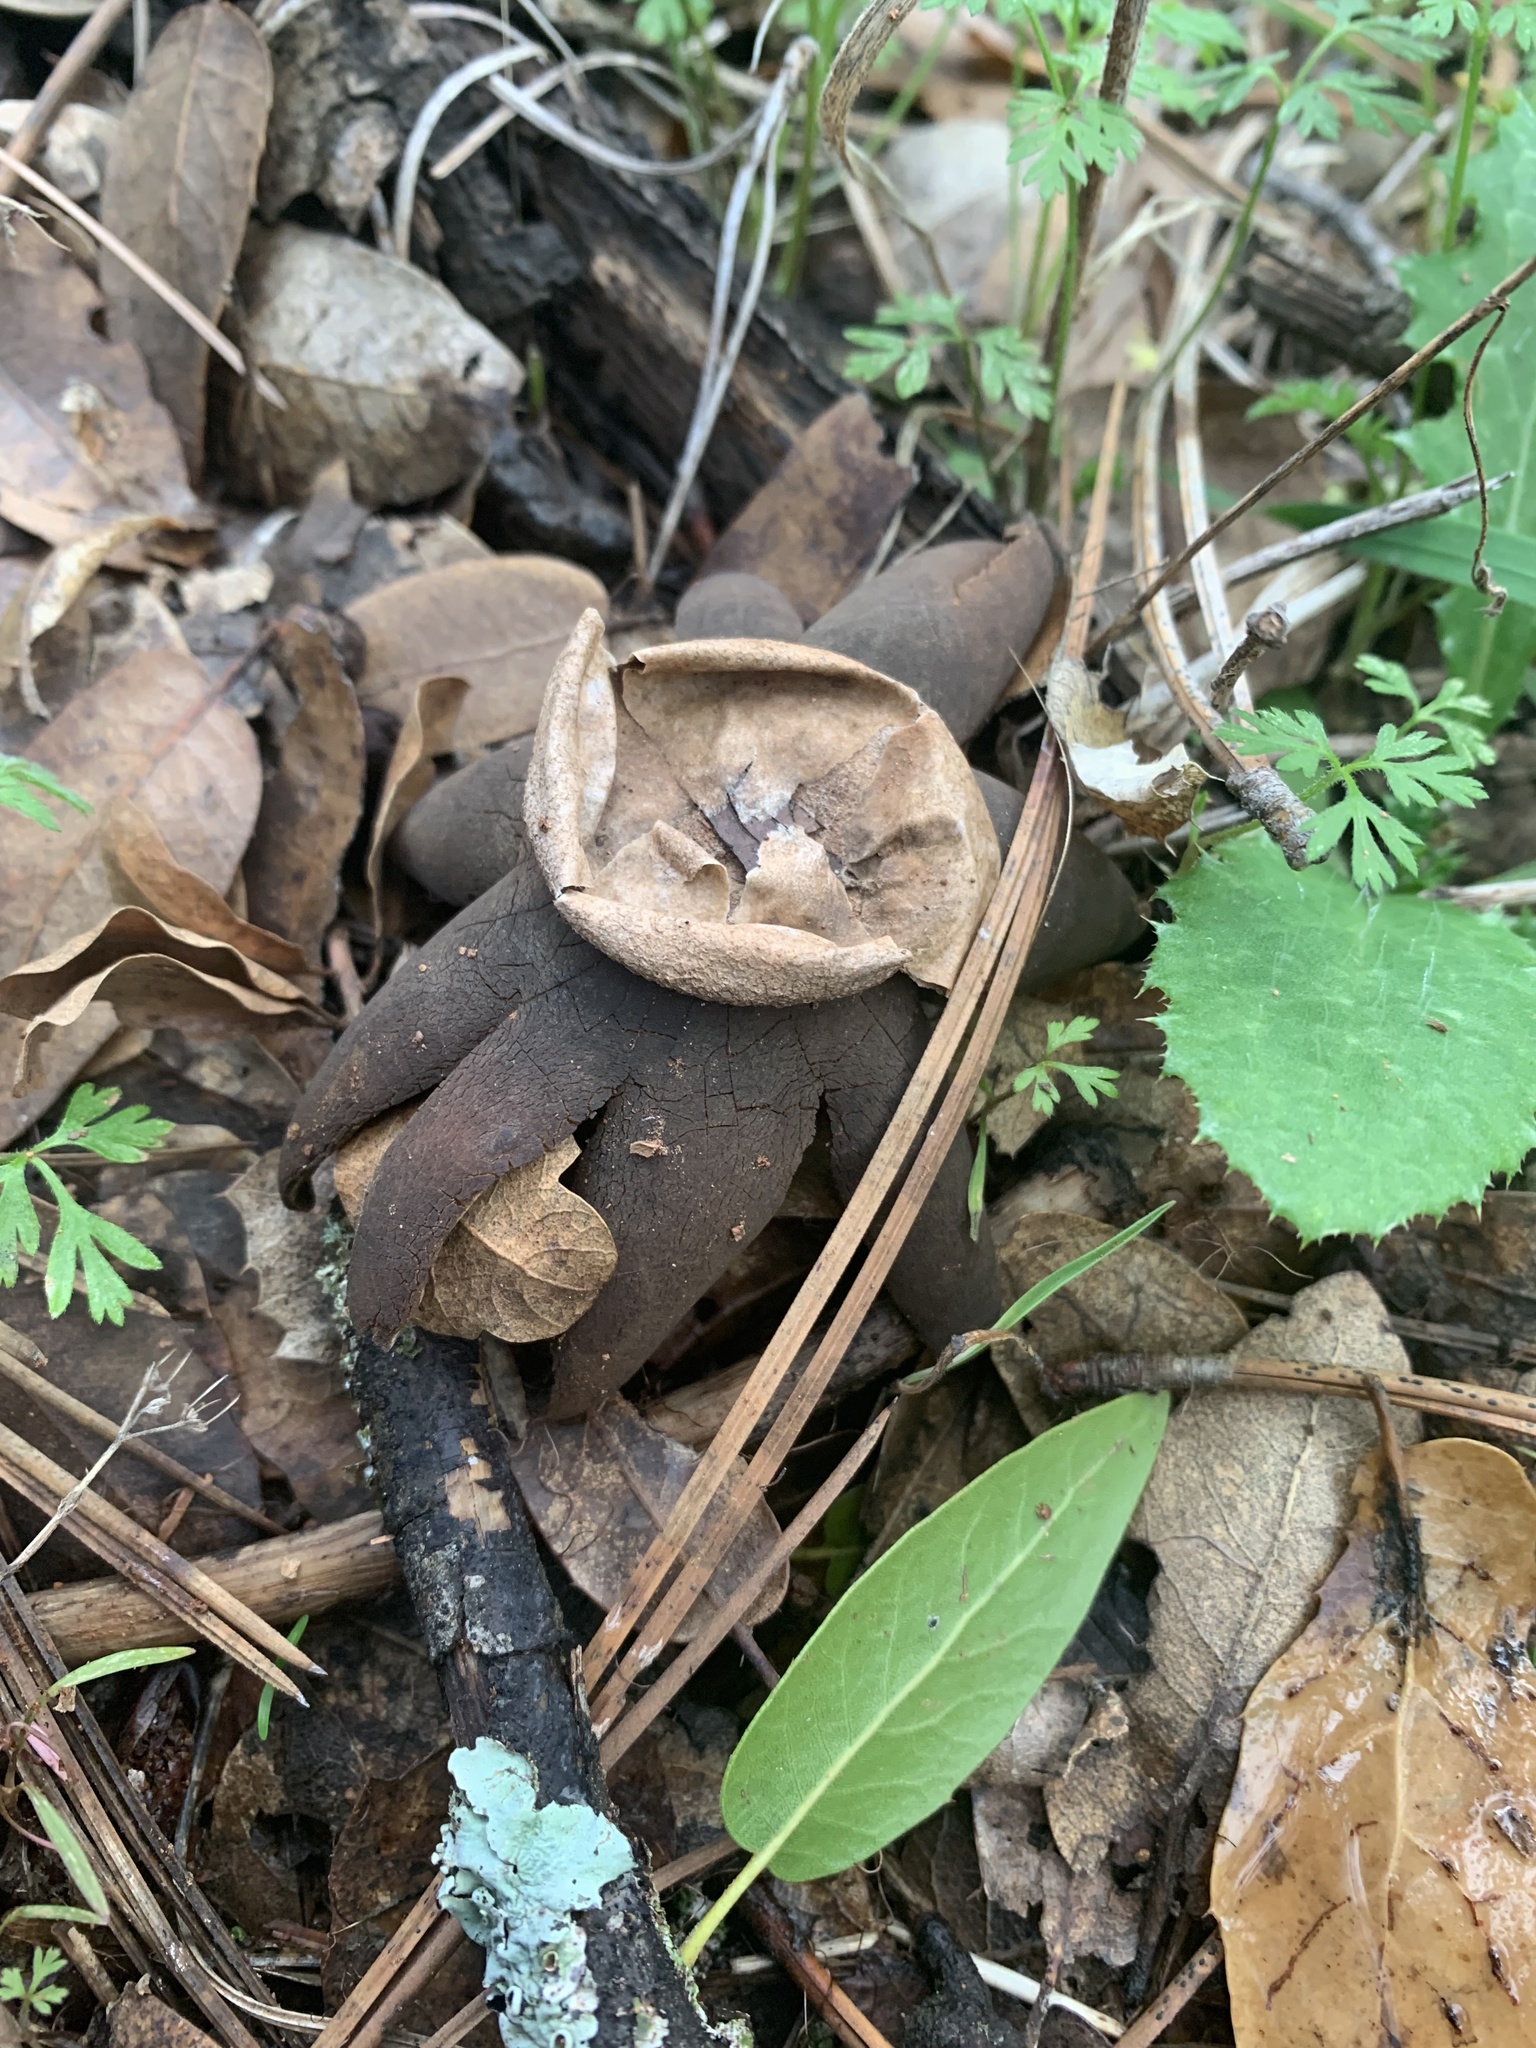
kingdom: Fungi
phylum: Basidiomycota
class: Agaricomycetes
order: Boletales
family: Diplocystidiaceae
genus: Astraeus
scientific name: Astraeus pteridis
